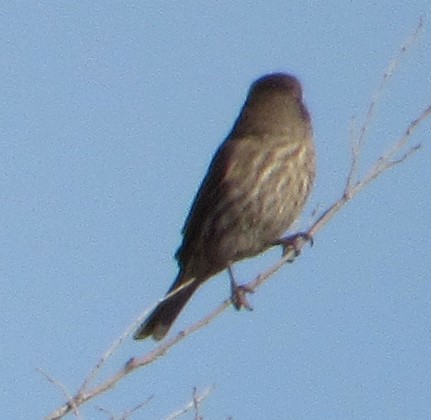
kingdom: Animalia
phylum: Chordata
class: Aves
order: Passeriformes
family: Fringillidae
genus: Haemorhous
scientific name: Haemorhous mexicanus
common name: House finch
